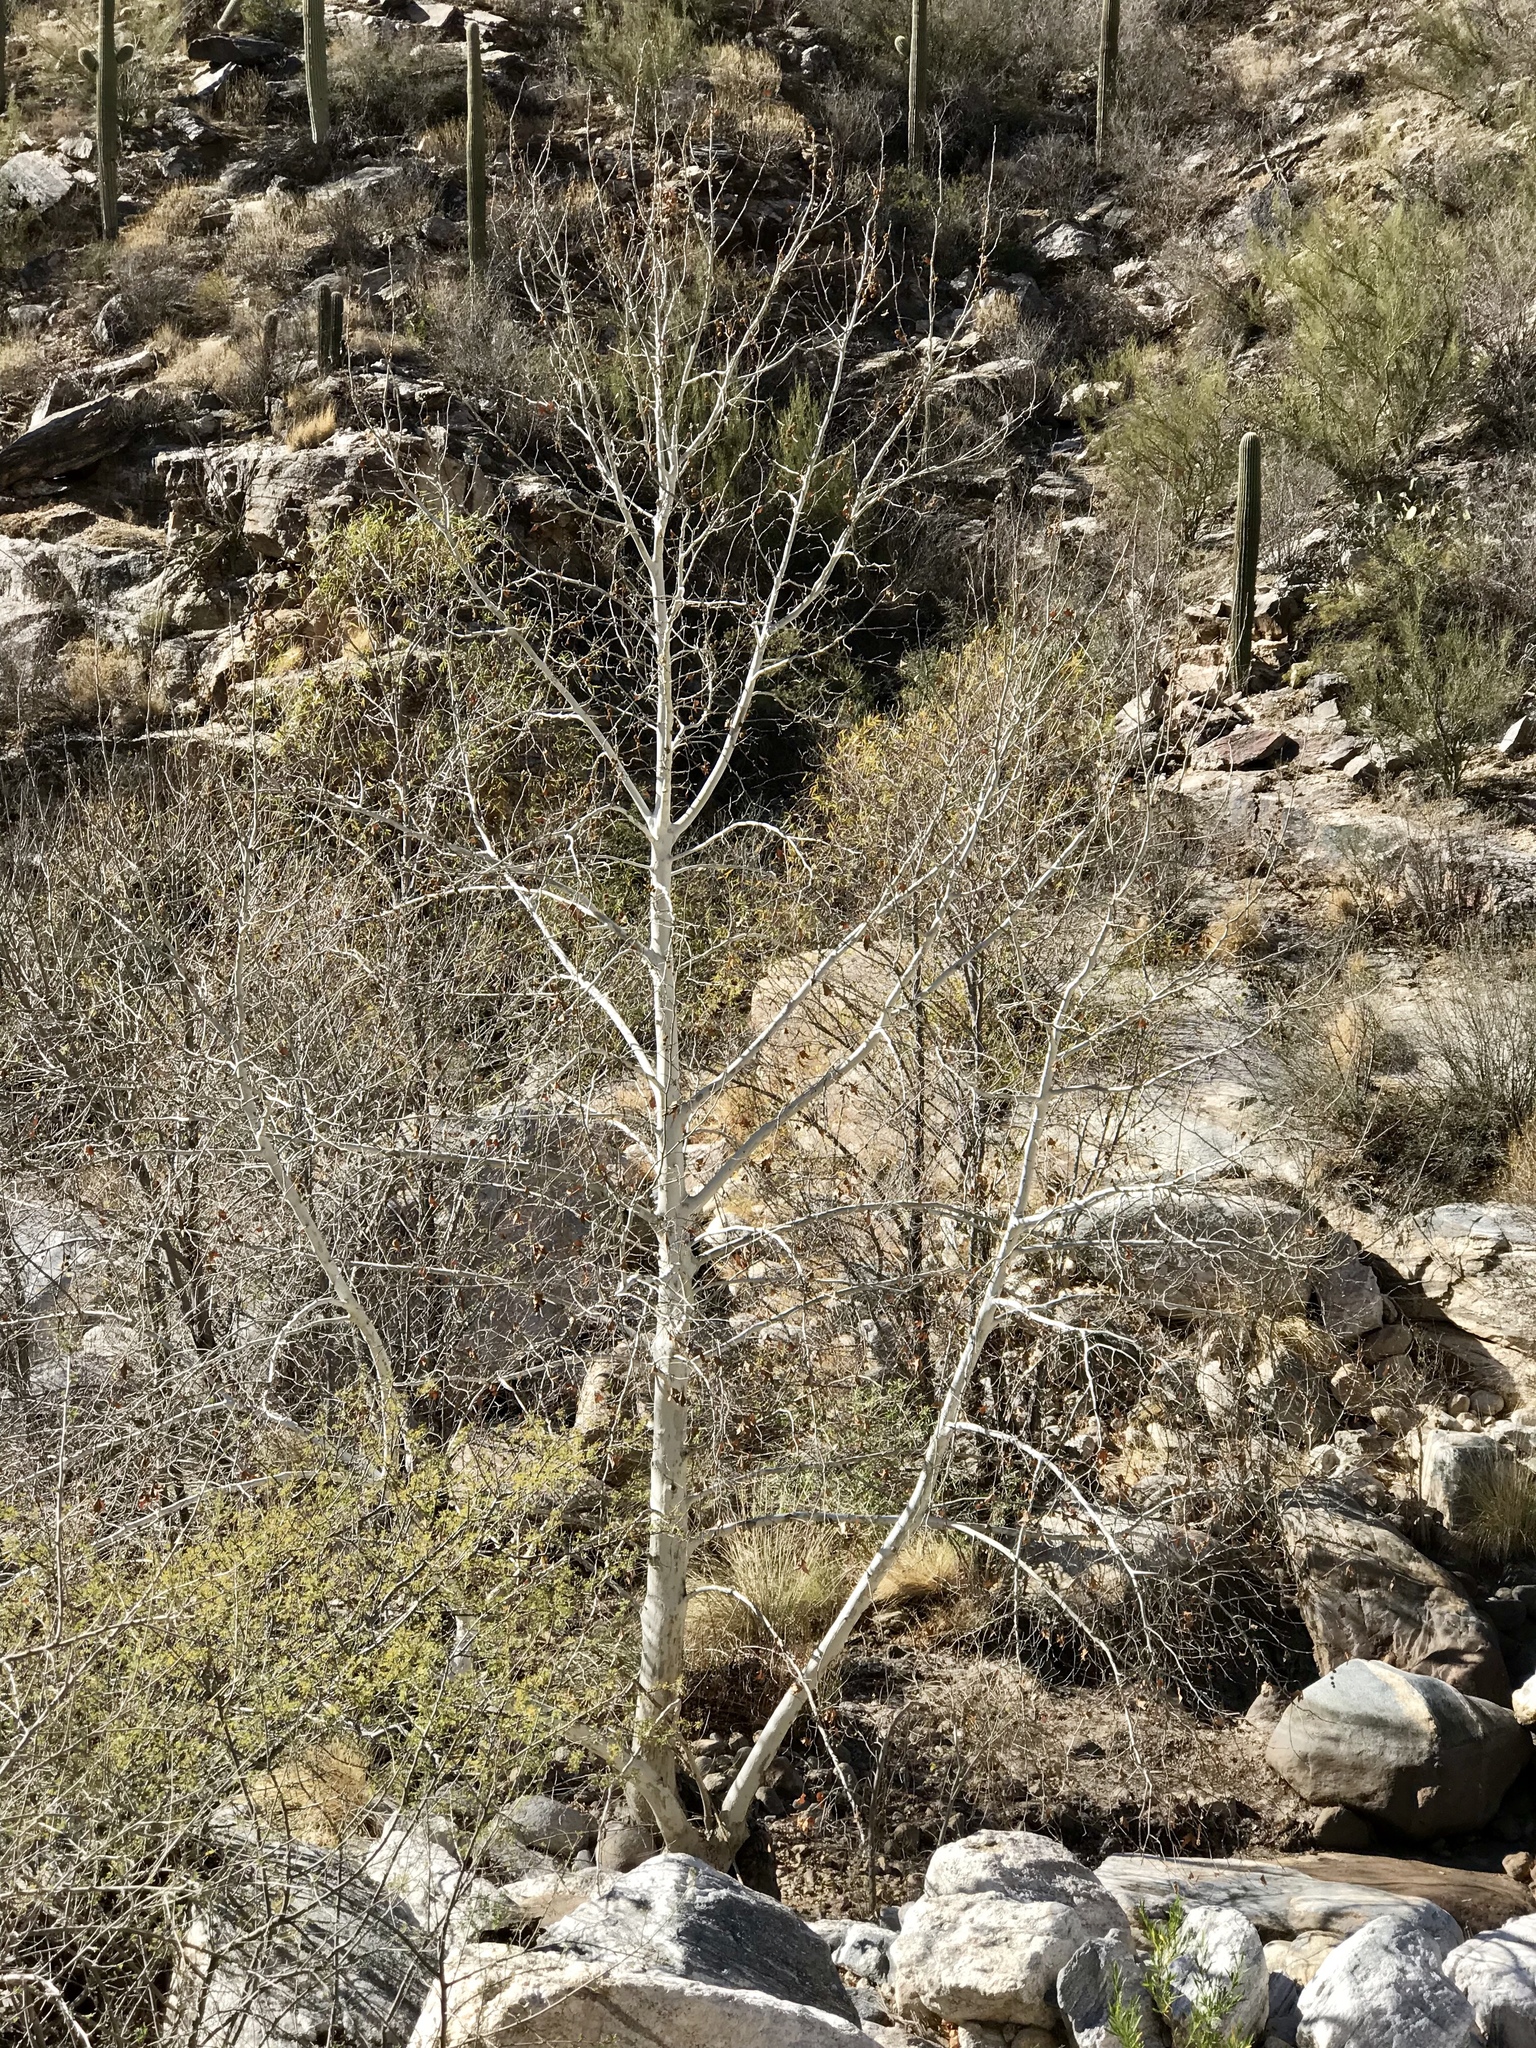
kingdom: Plantae
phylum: Tracheophyta
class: Magnoliopsida
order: Proteales
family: Platanaceae
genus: Platanus
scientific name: Platanus wrightii
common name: Arizona sycamore
